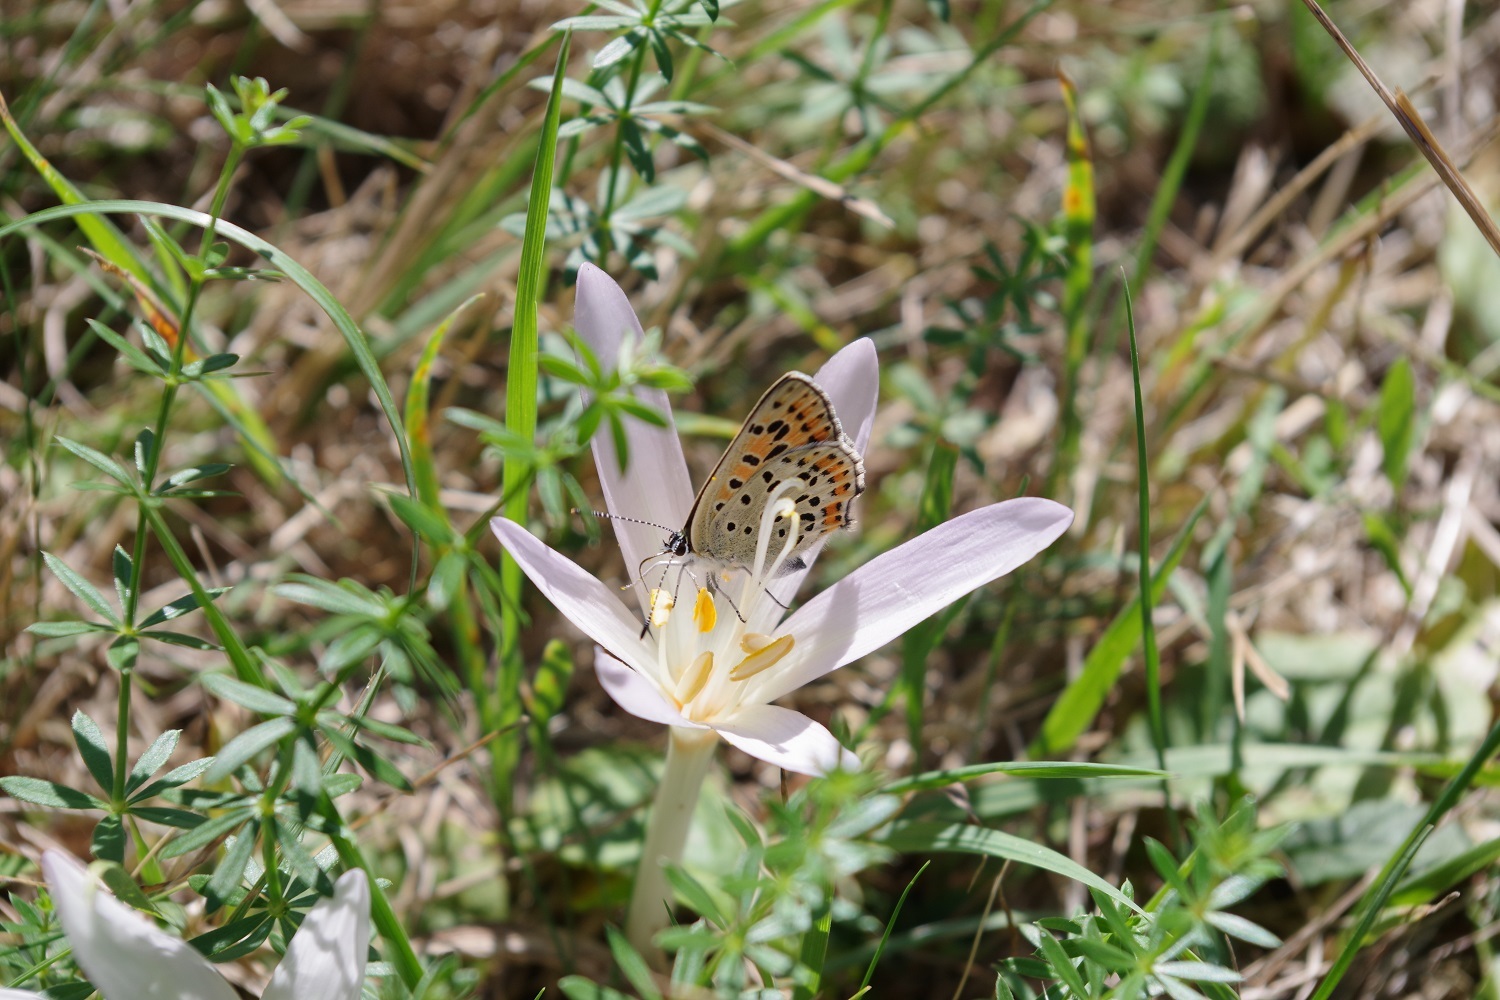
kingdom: Animalia
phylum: Arthropoda
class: Insecta
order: Lepidoptera
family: Lycaenidae
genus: Loweia
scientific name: Loweia tityrus
